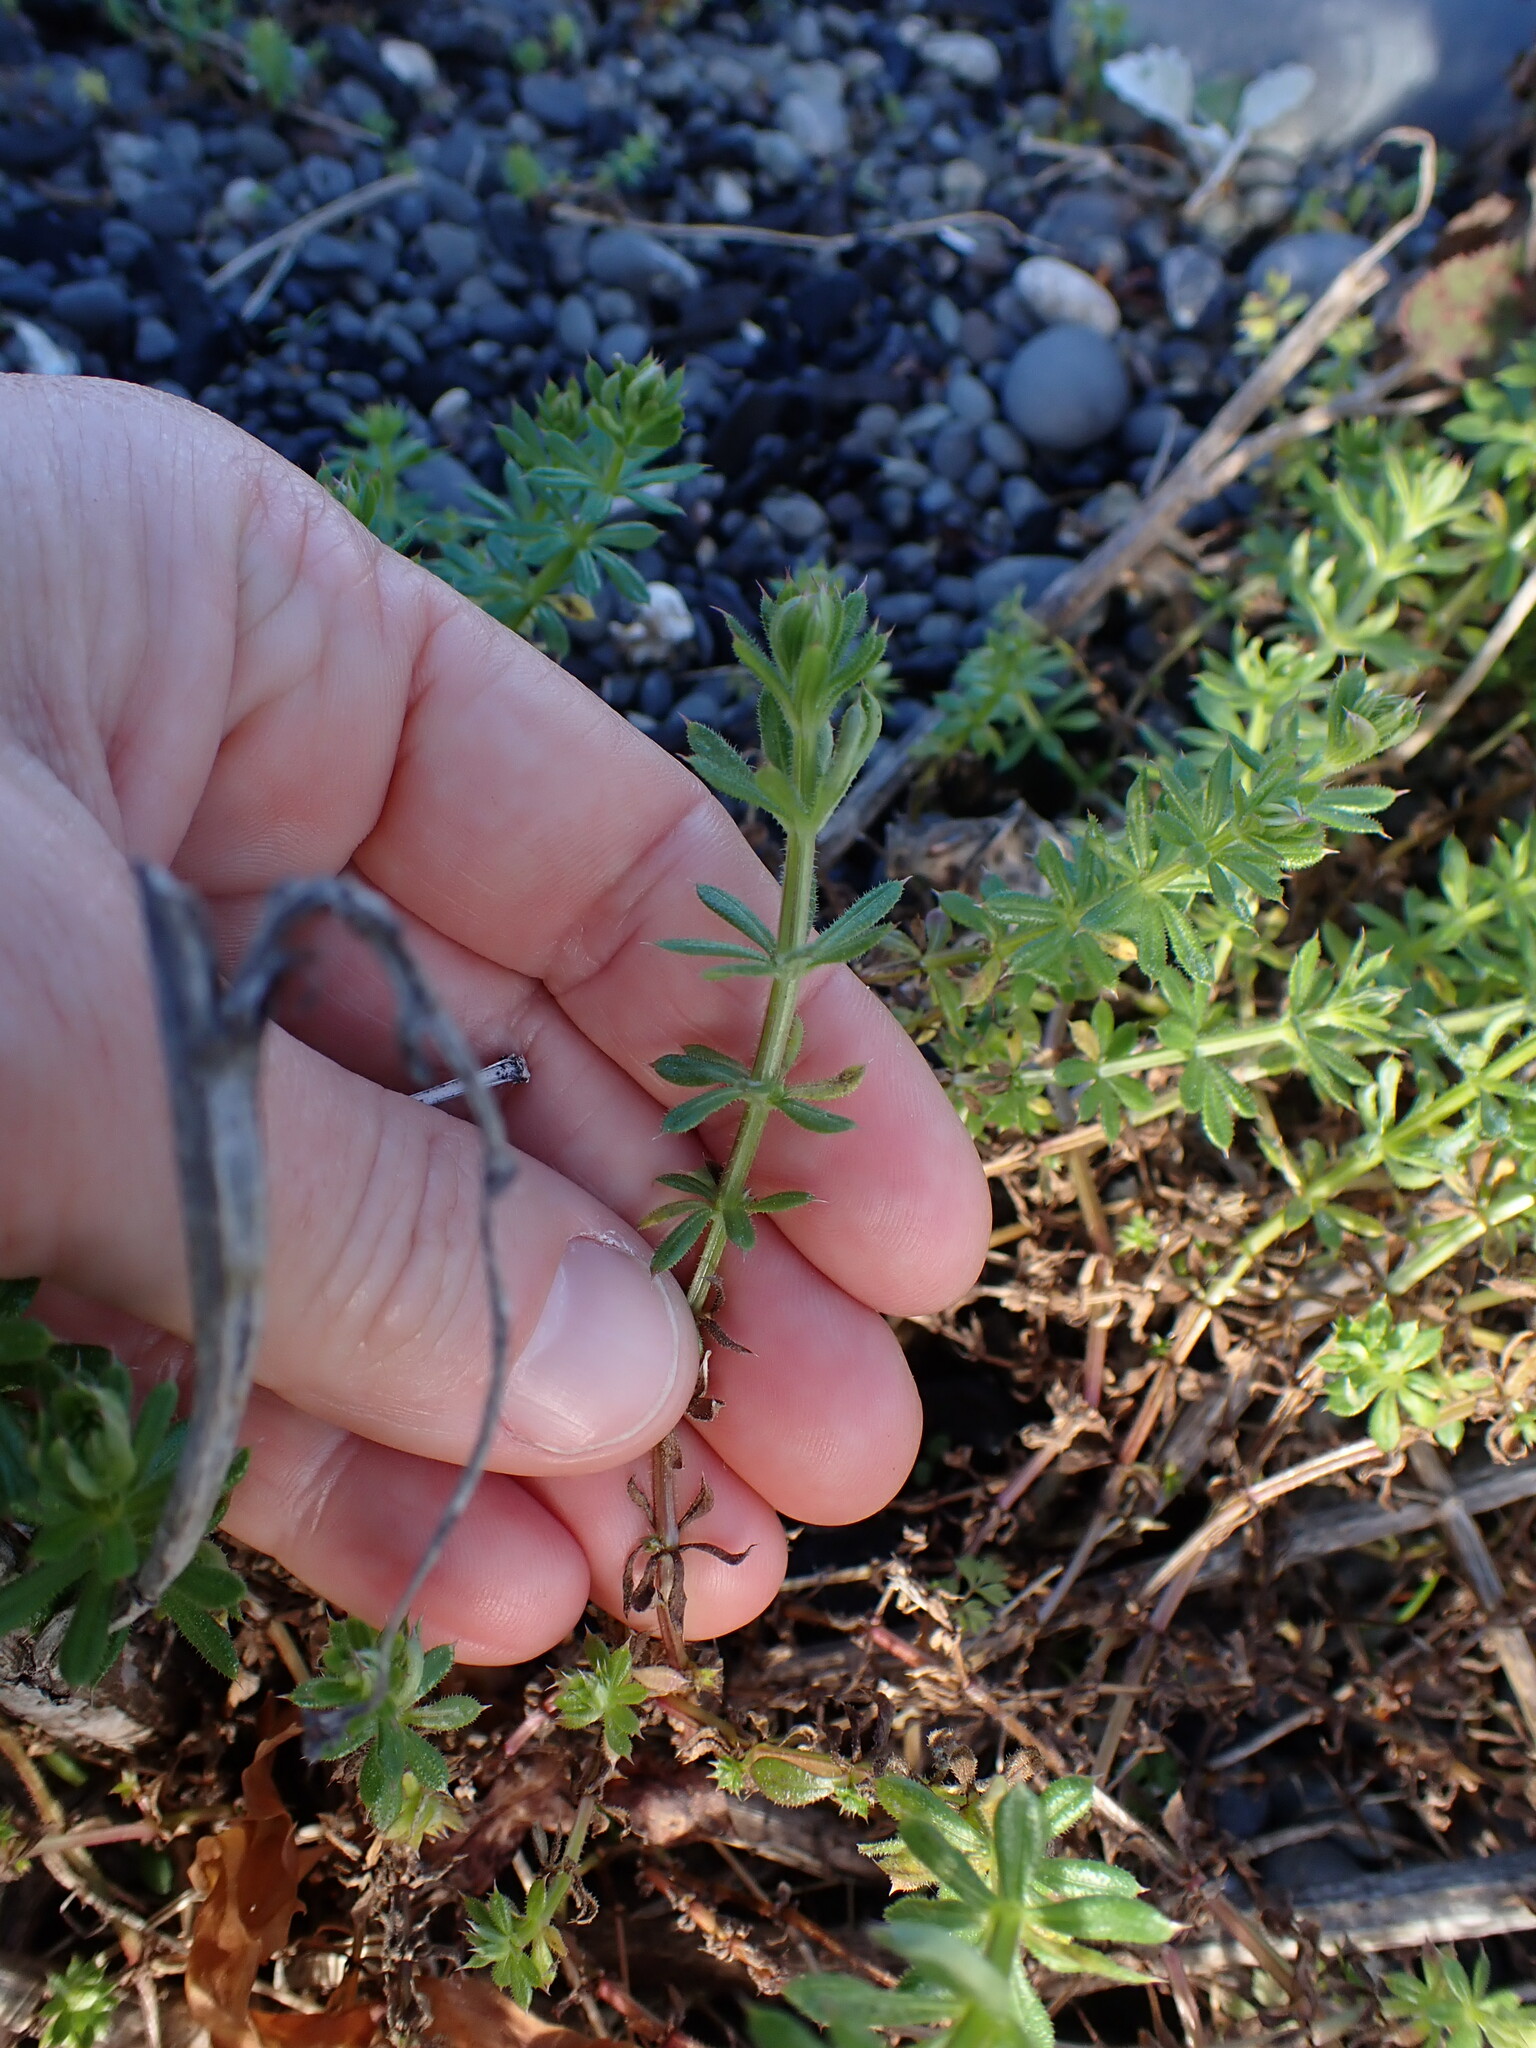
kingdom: Plantae
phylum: Tracheophyta
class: Magnoliopsida
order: Gentianales
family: Rubiaceae
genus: Galium
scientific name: Galium aparine
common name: Cleavers
